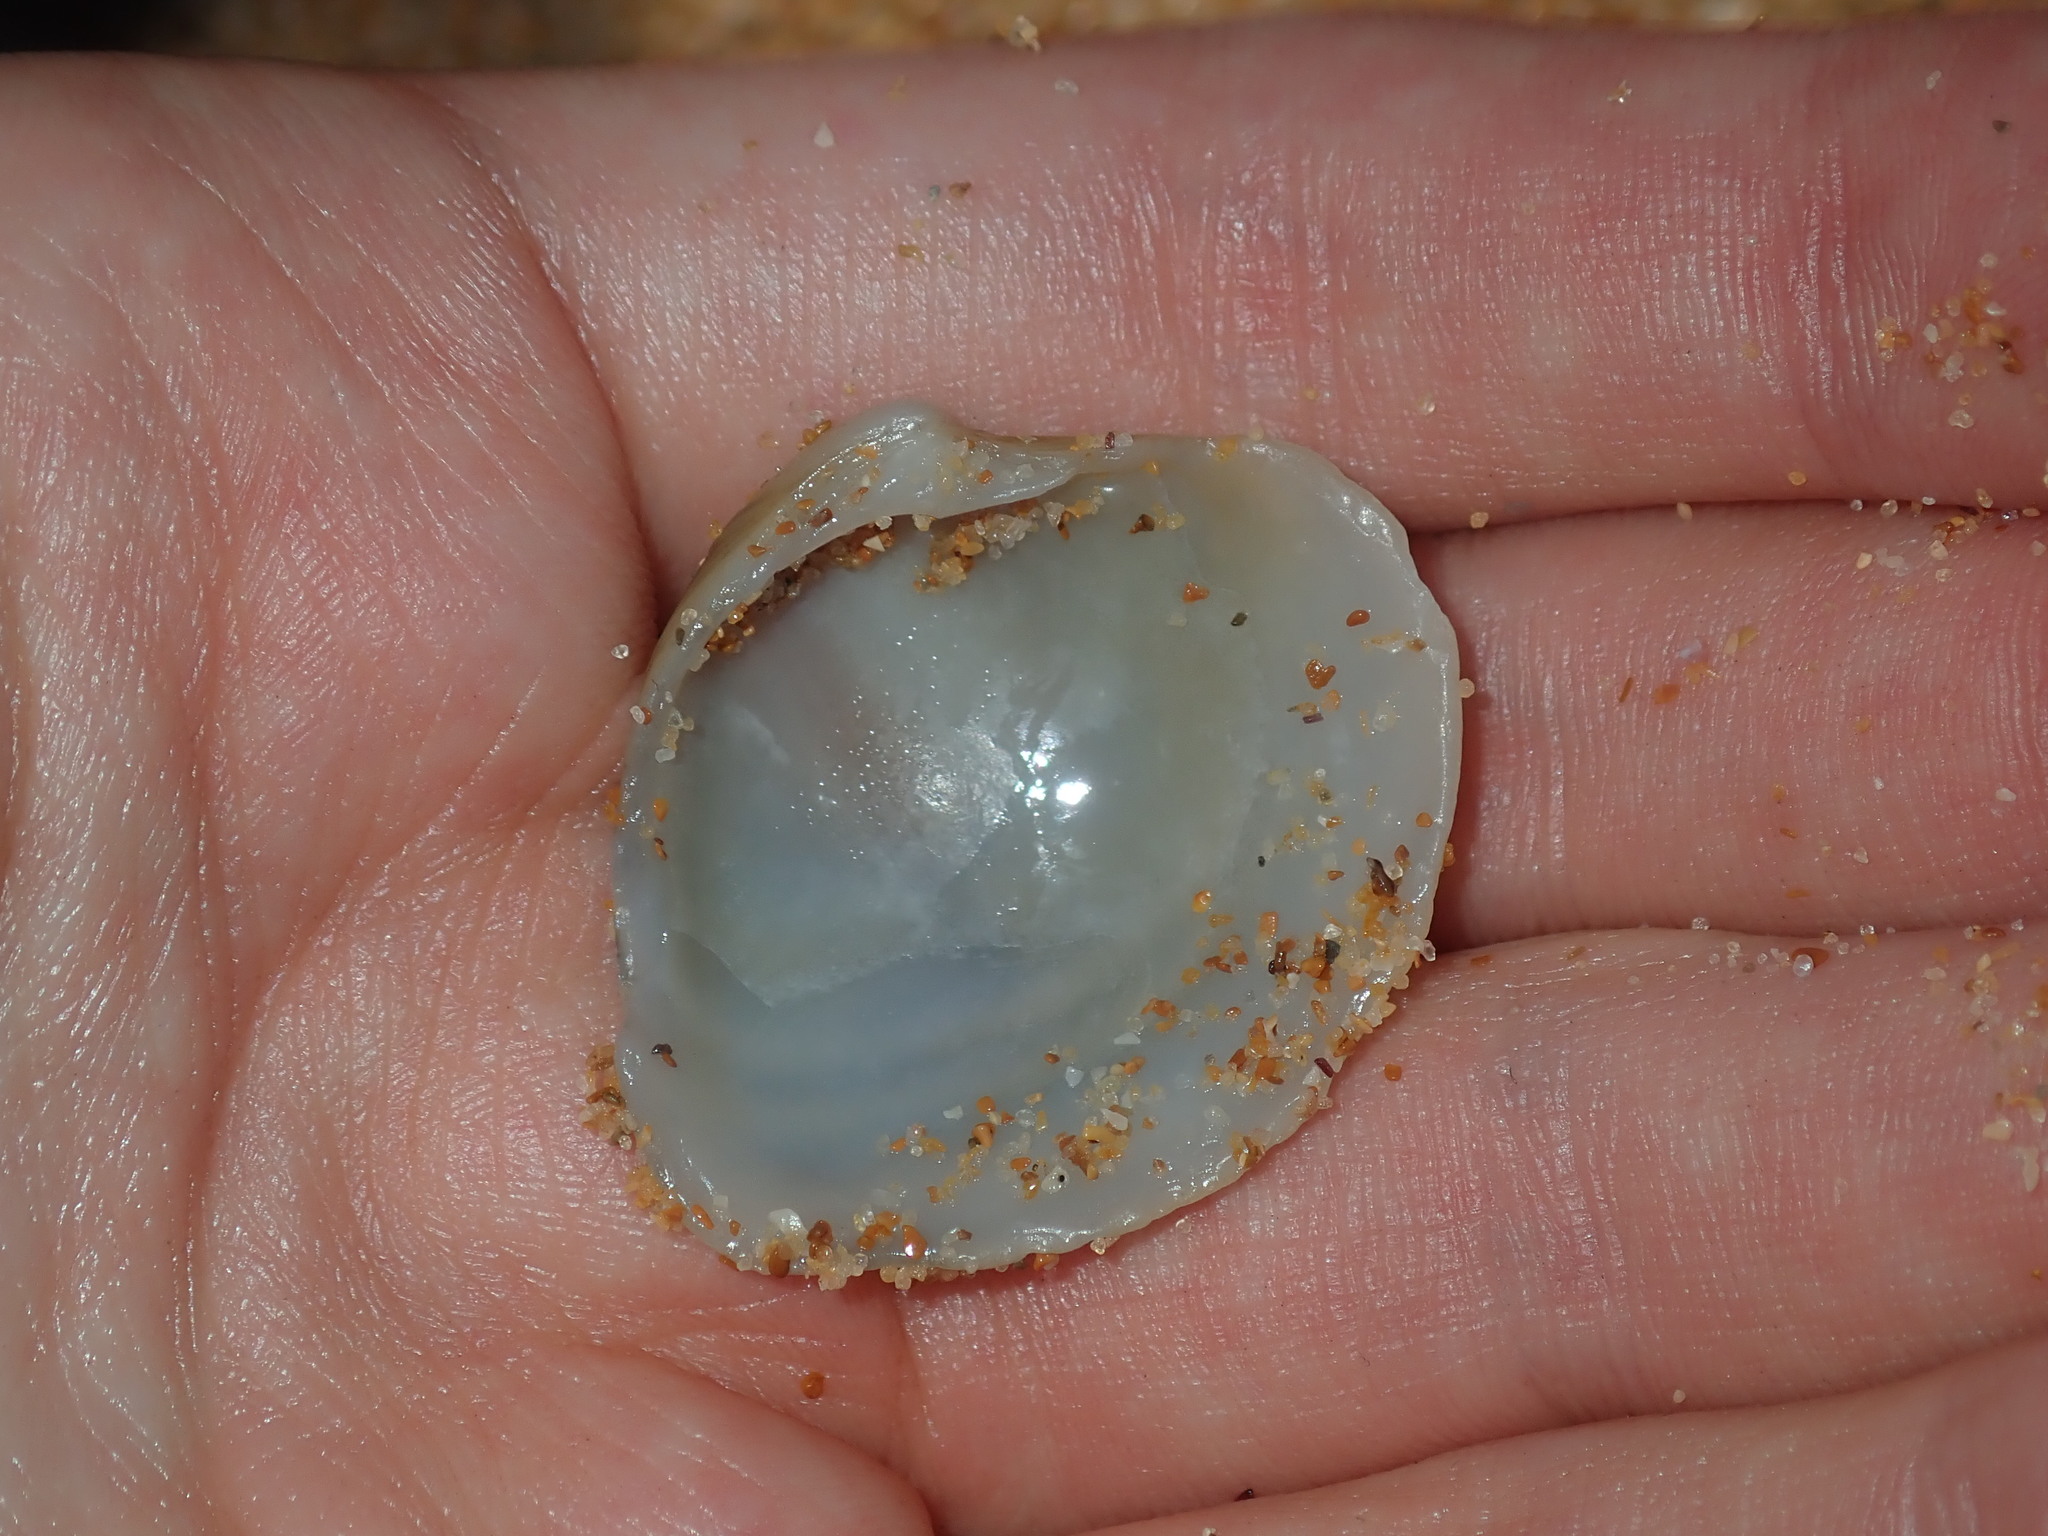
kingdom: Animalia
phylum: Mollusca
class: Bivalvia
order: Venerida
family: Veneridae
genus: Bassina
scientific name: Bassina jacksonii
